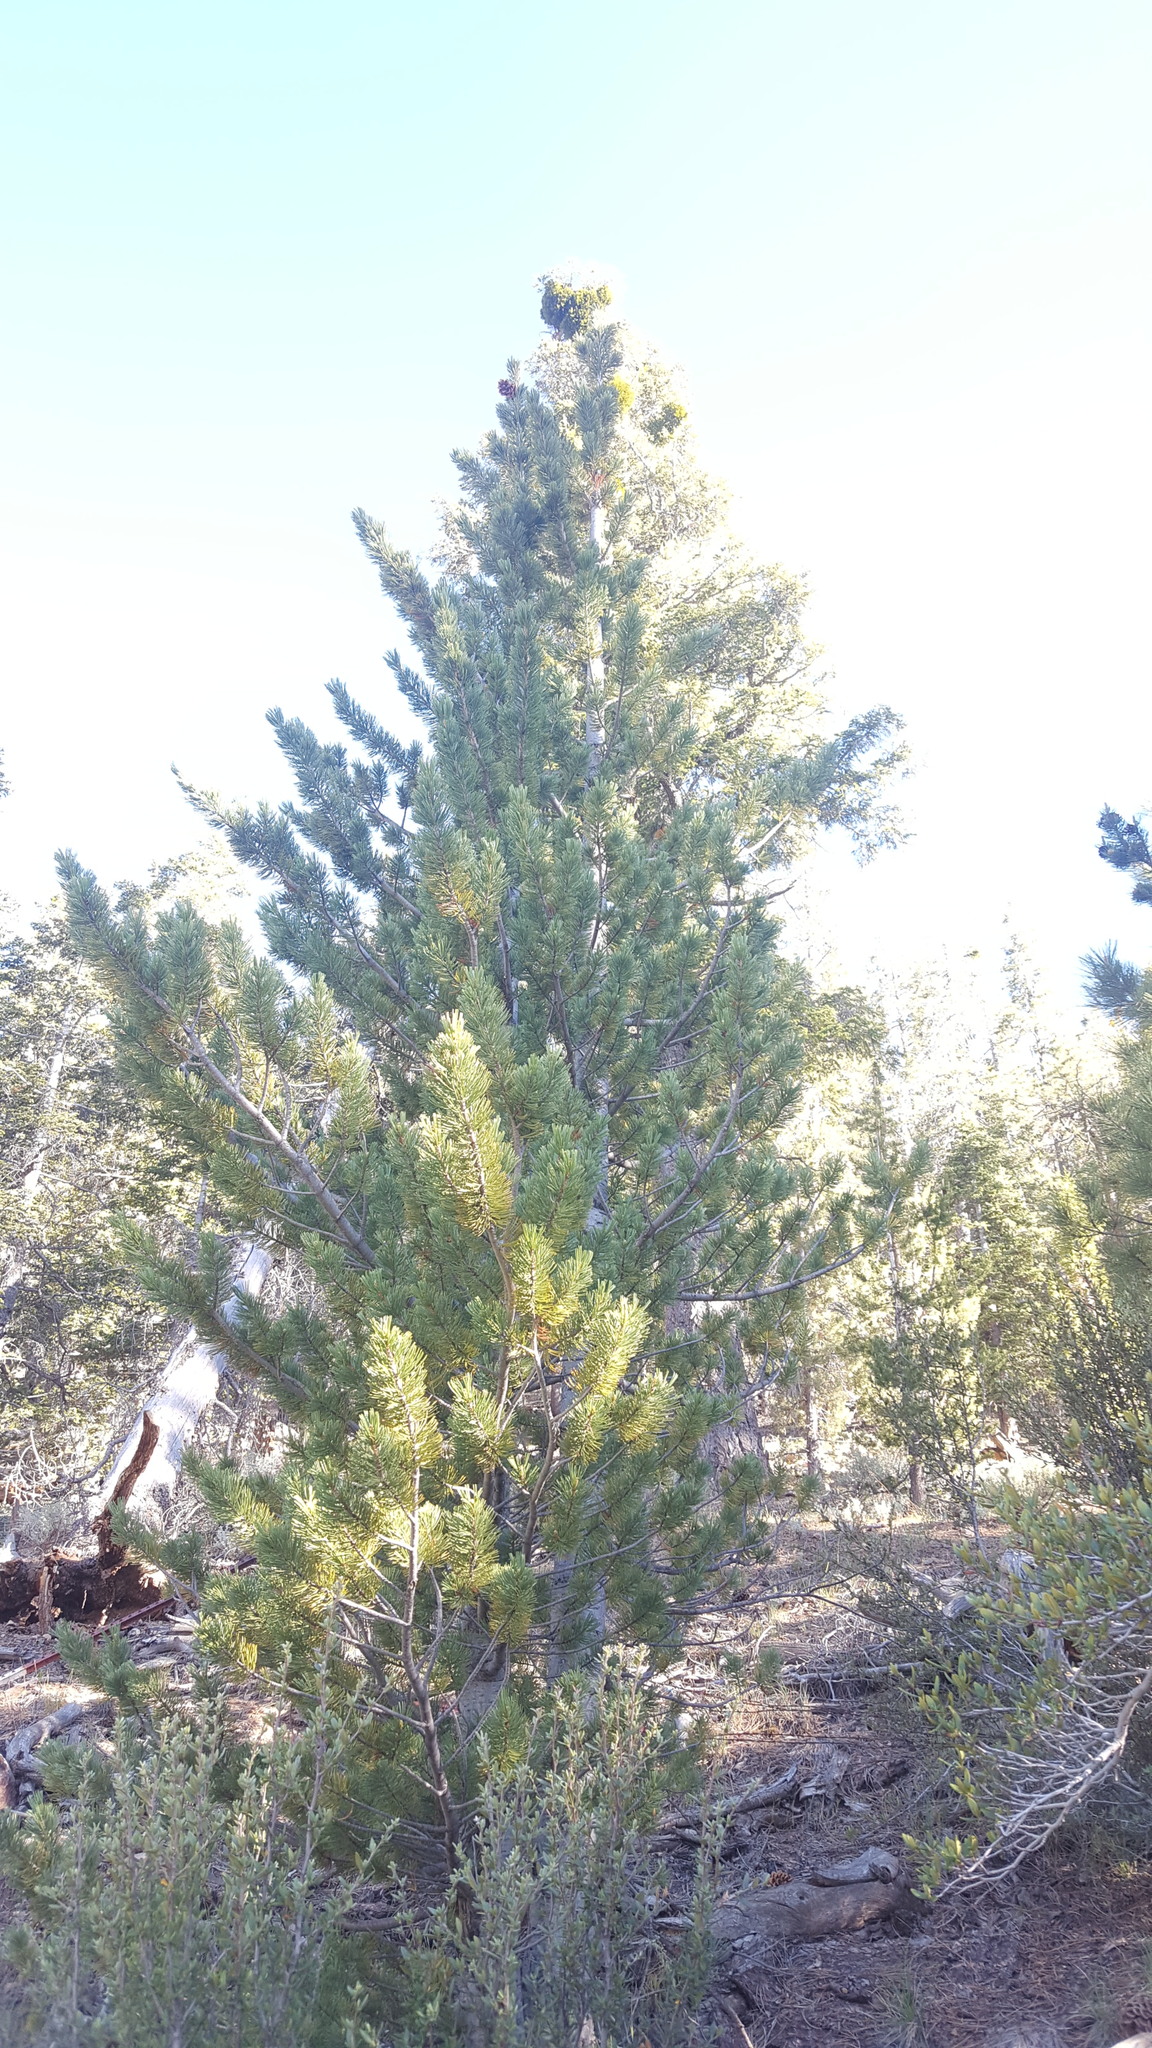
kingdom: Plantae
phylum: Tracheophyta
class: Pinopsida
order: Pinales
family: Pinaceae
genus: Pinus
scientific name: Pinus flexilis
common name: Limber pine
